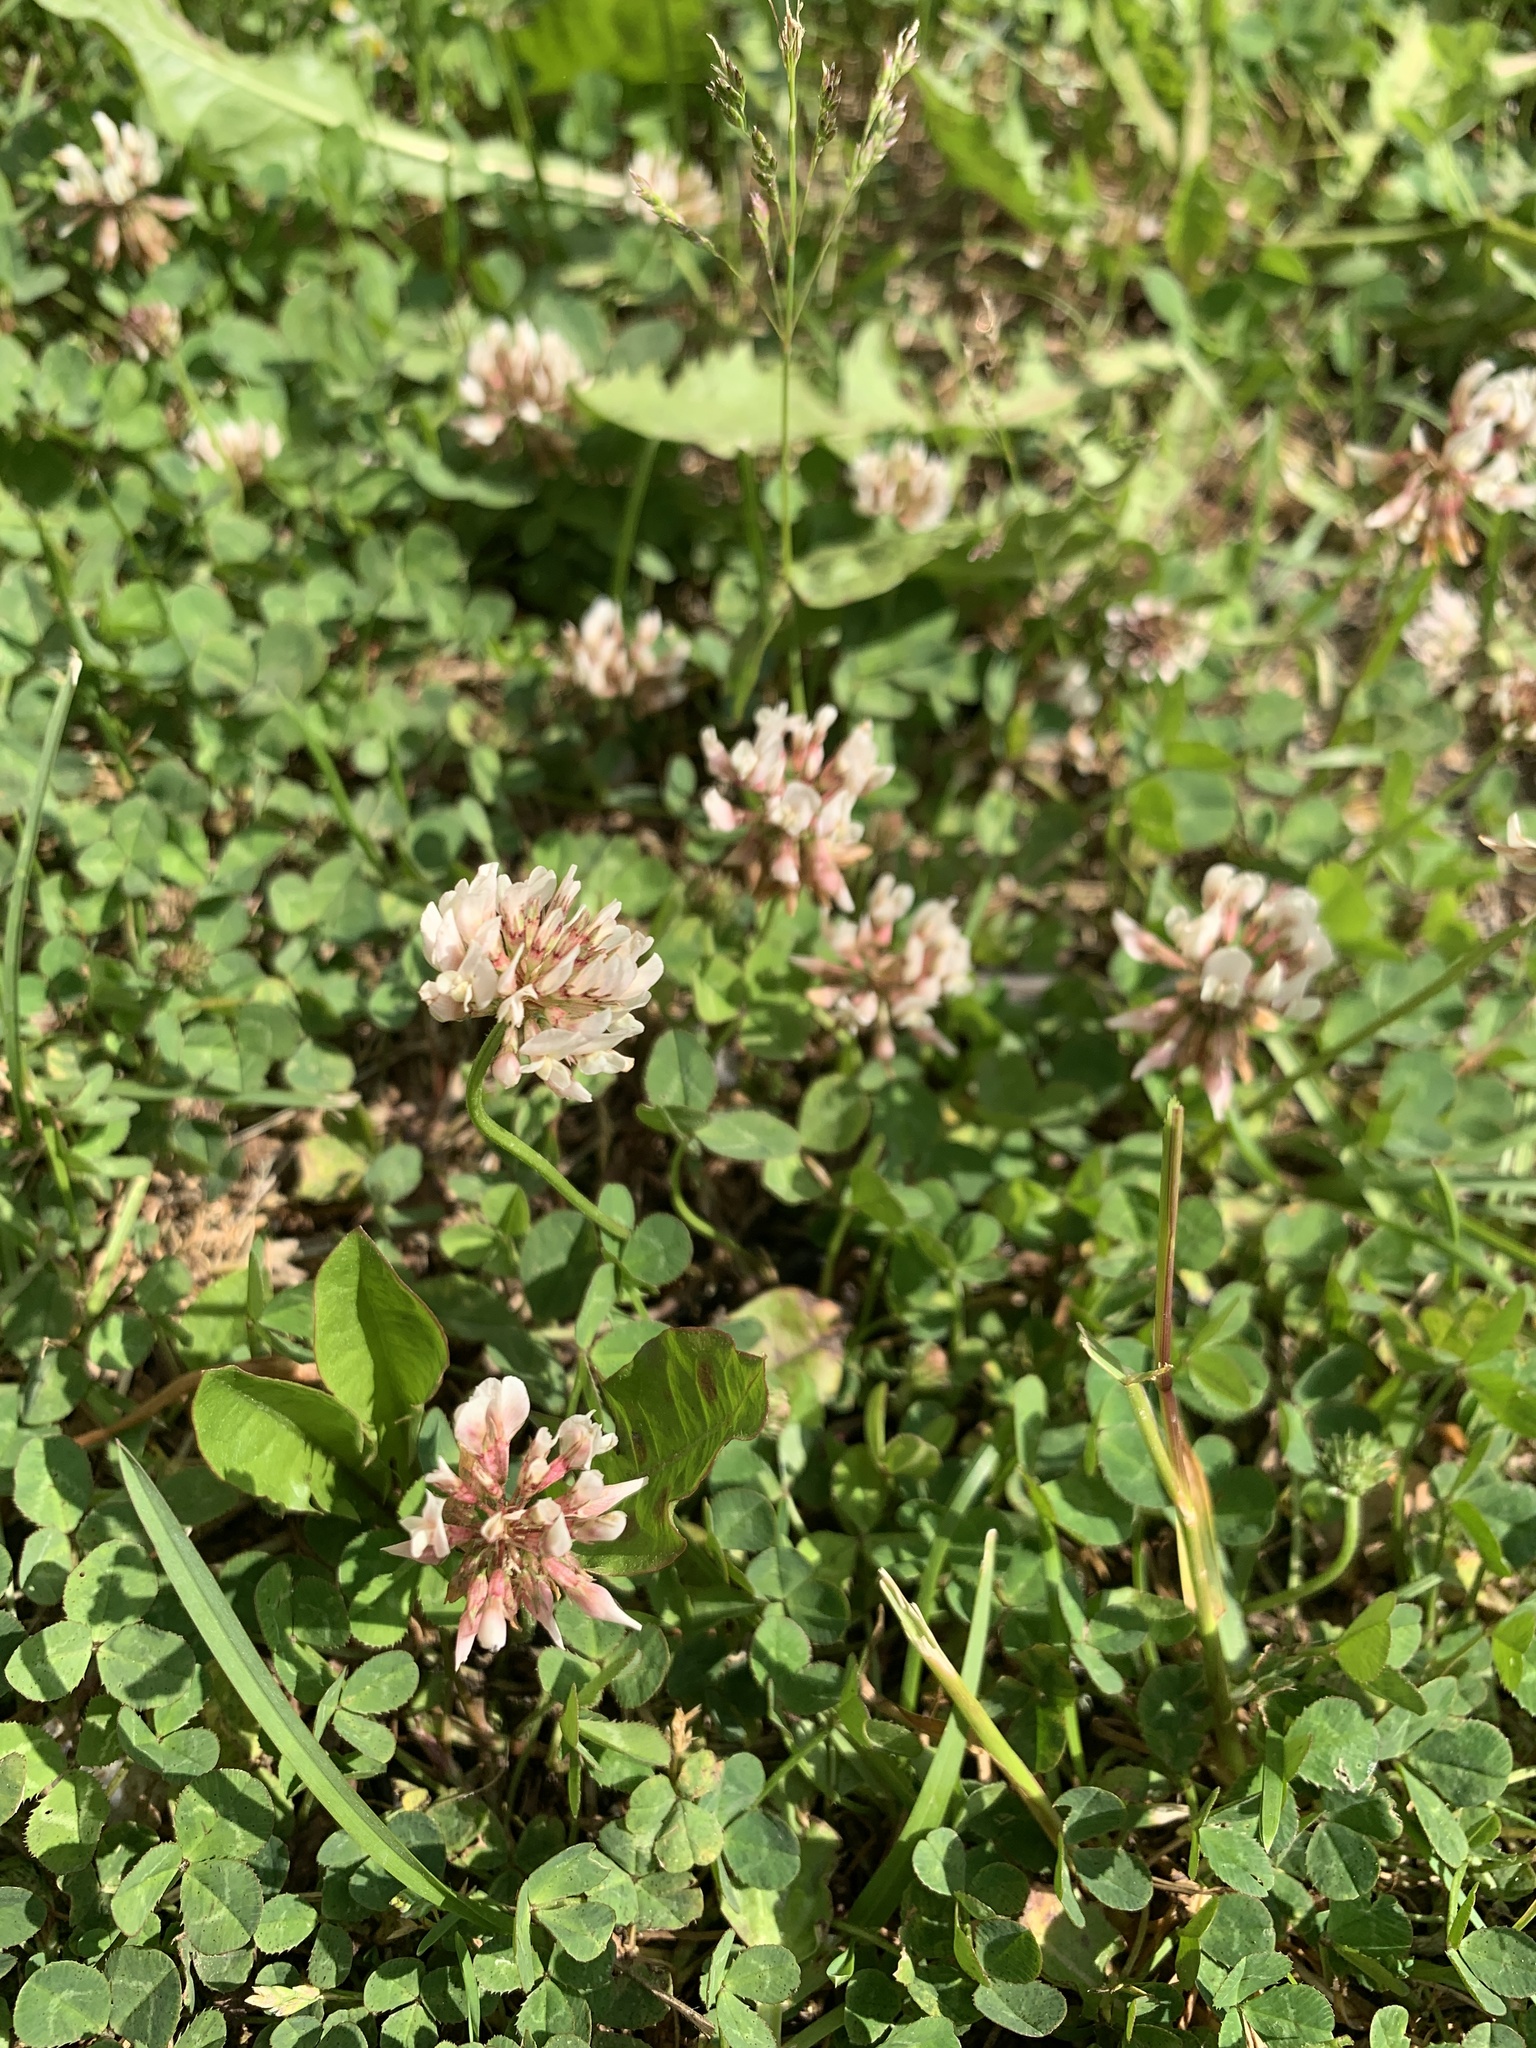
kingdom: Plantae
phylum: Tracheophyta
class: Magnoliopsida
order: Fabales
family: Fabaceae
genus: Trifolium
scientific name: Trifolium repens
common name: White clover
